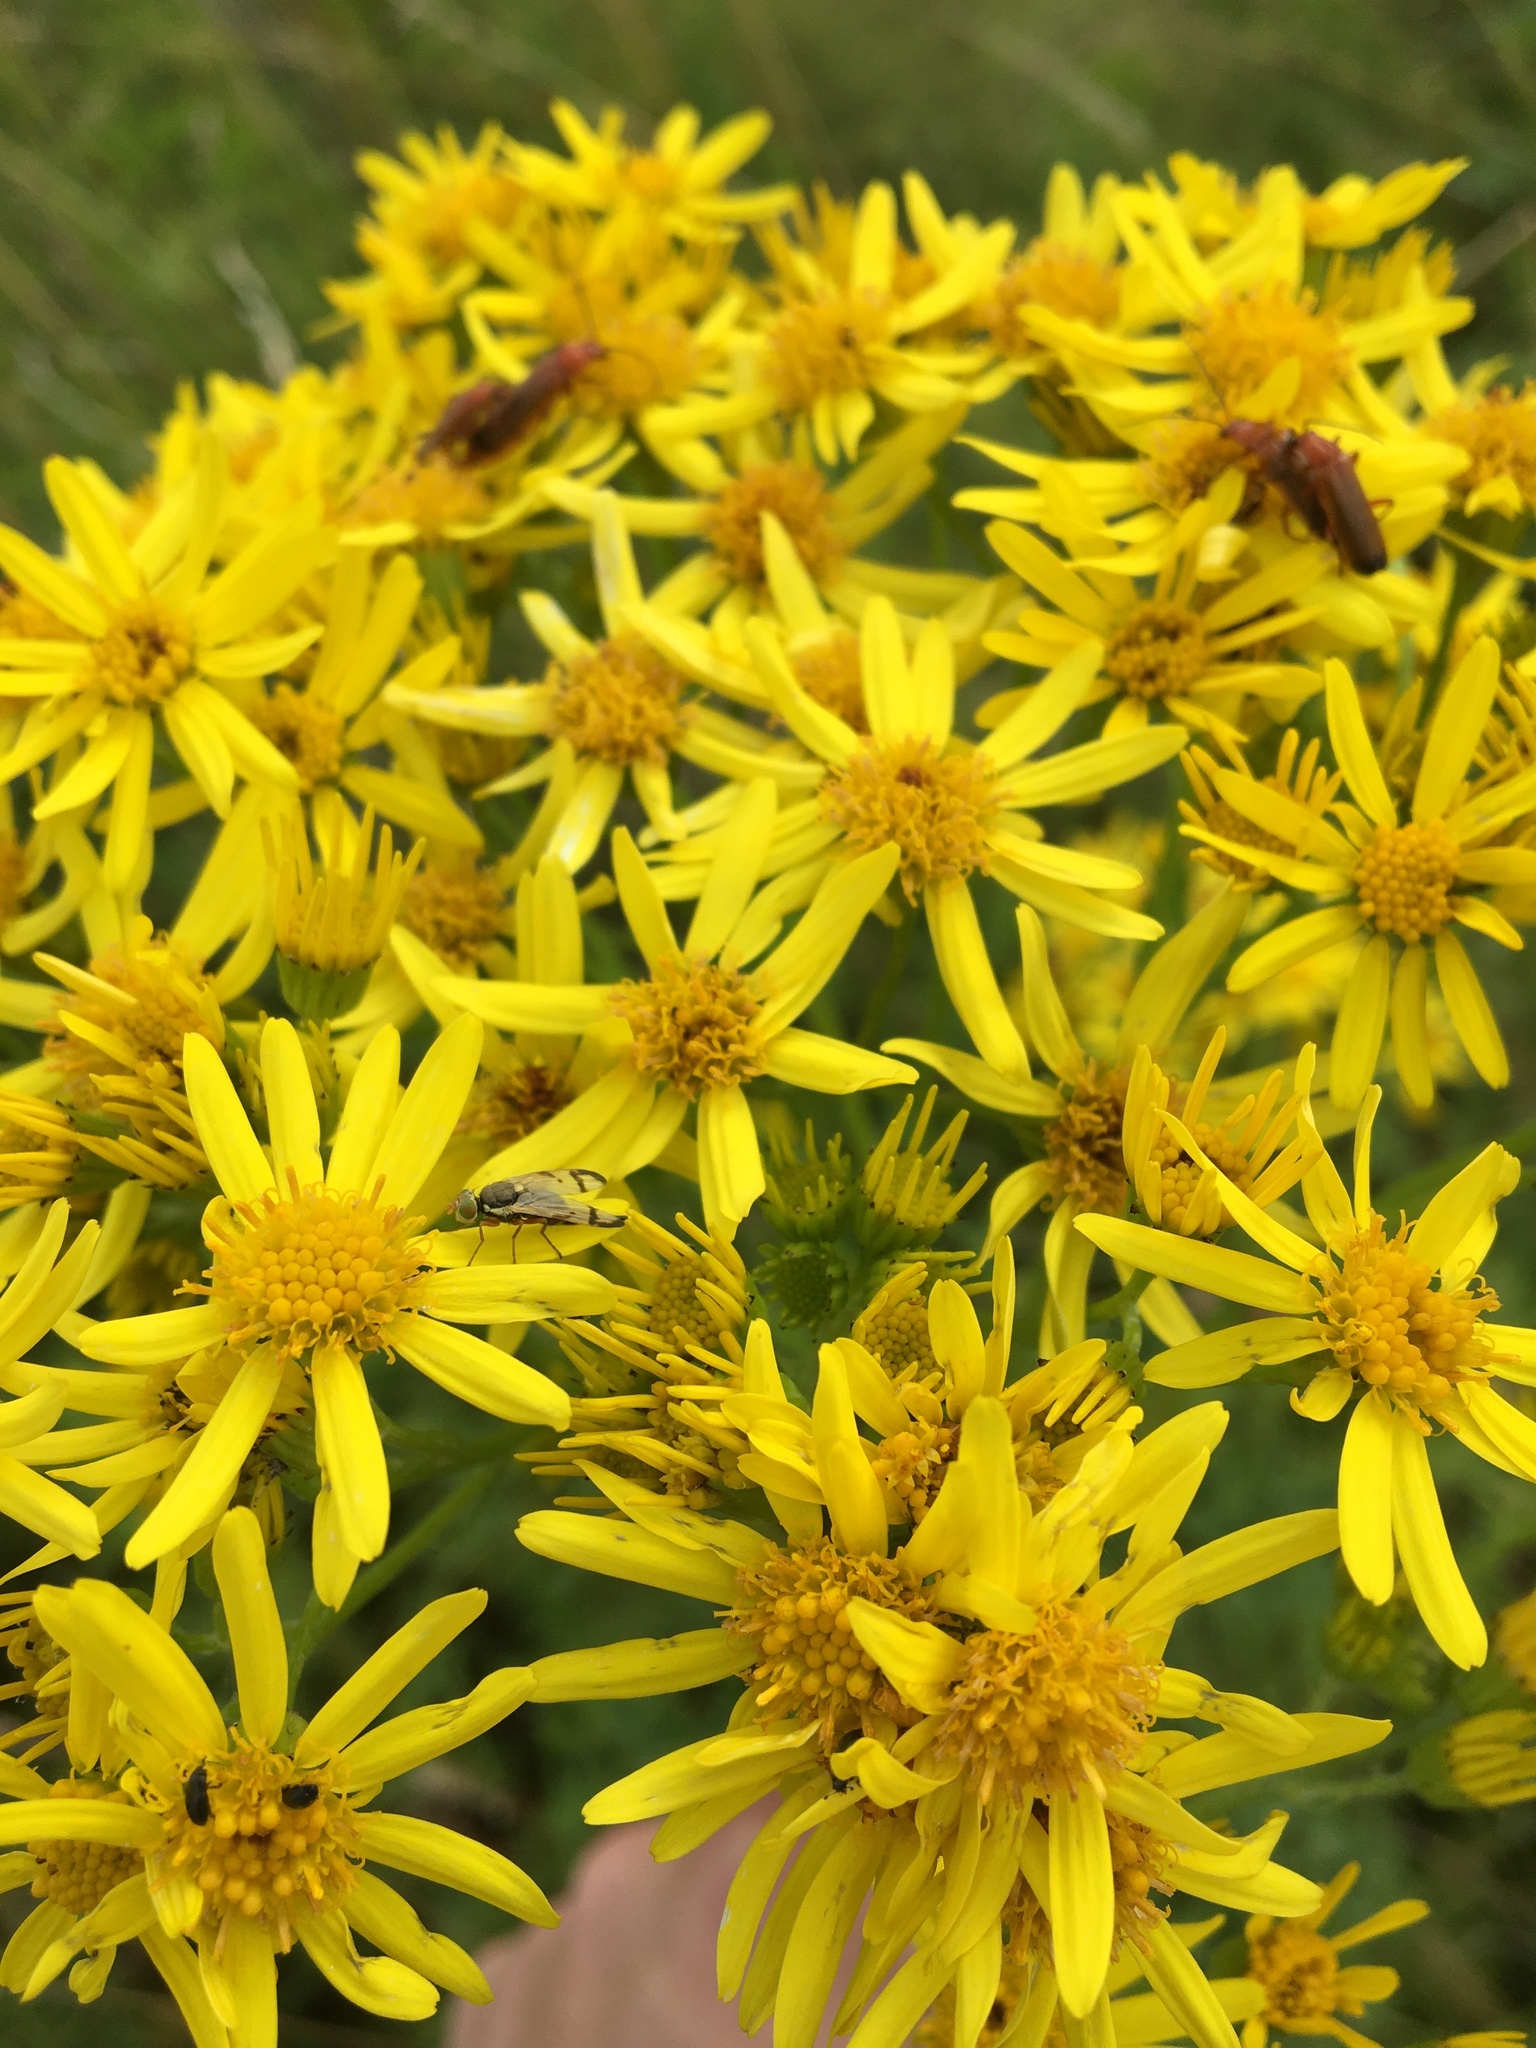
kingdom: Plantae
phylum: Tracheophyta
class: Magnoliopsida
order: Asterales
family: Asteraceae
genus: Jacobaea
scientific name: Jacobaea vulgaris
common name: Stinking willie
